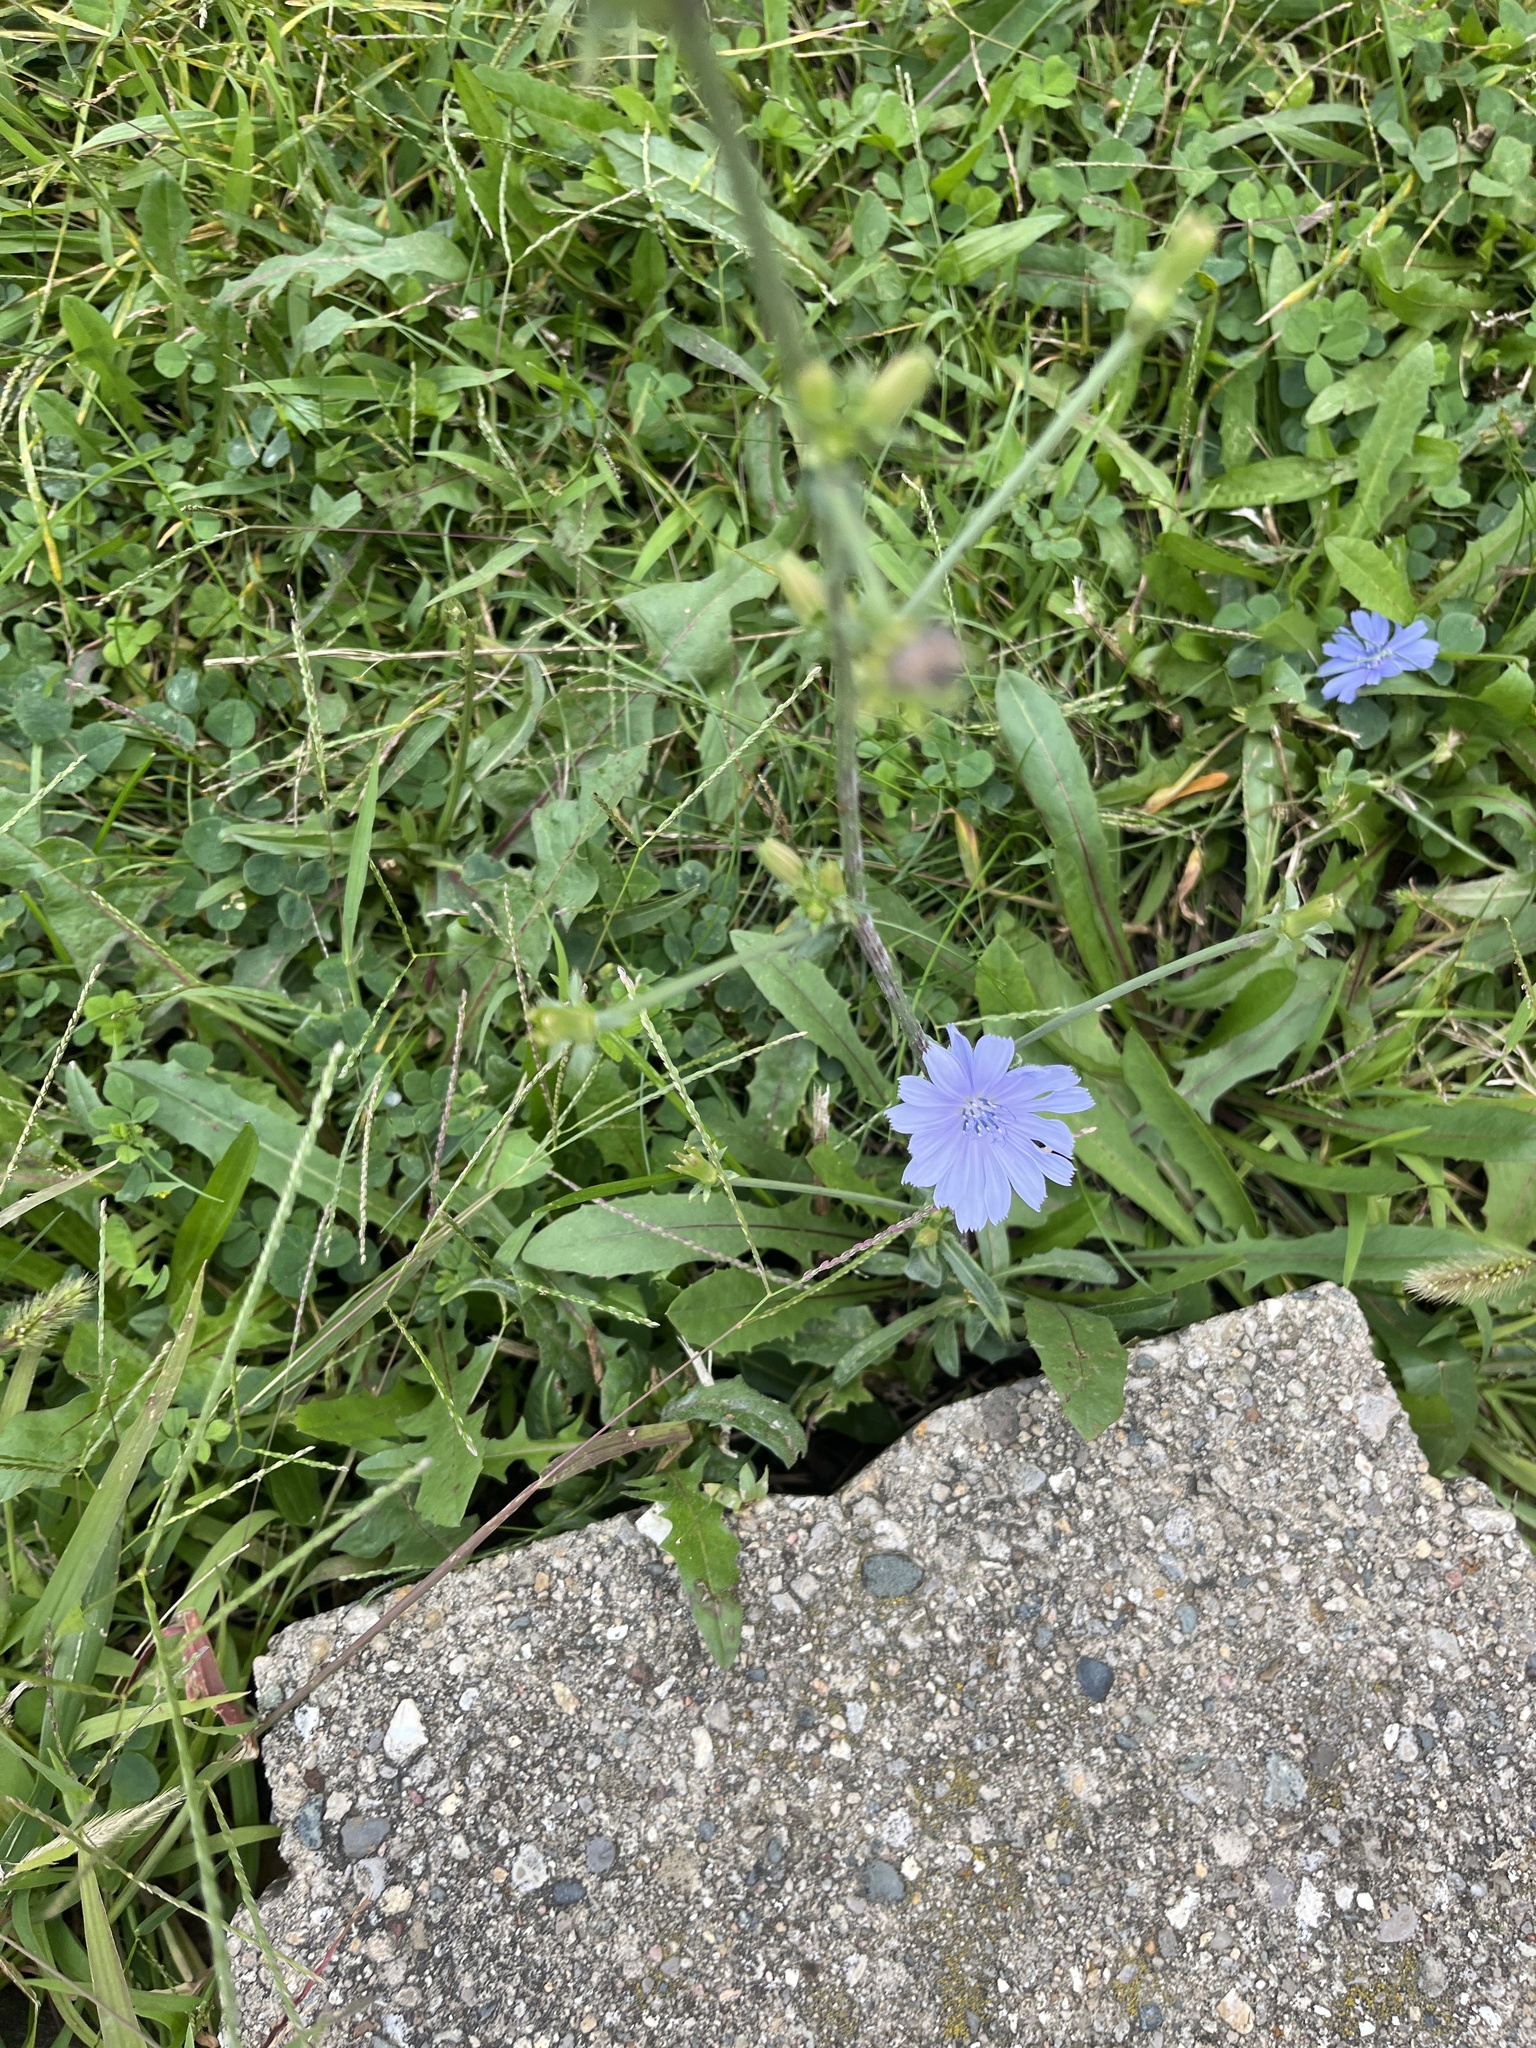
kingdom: Plantae
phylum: Tracheophyta
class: Magnoliopsida
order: Asterales
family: Asteraceae
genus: Cichorium
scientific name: Cichorium intybus
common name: Chicory
